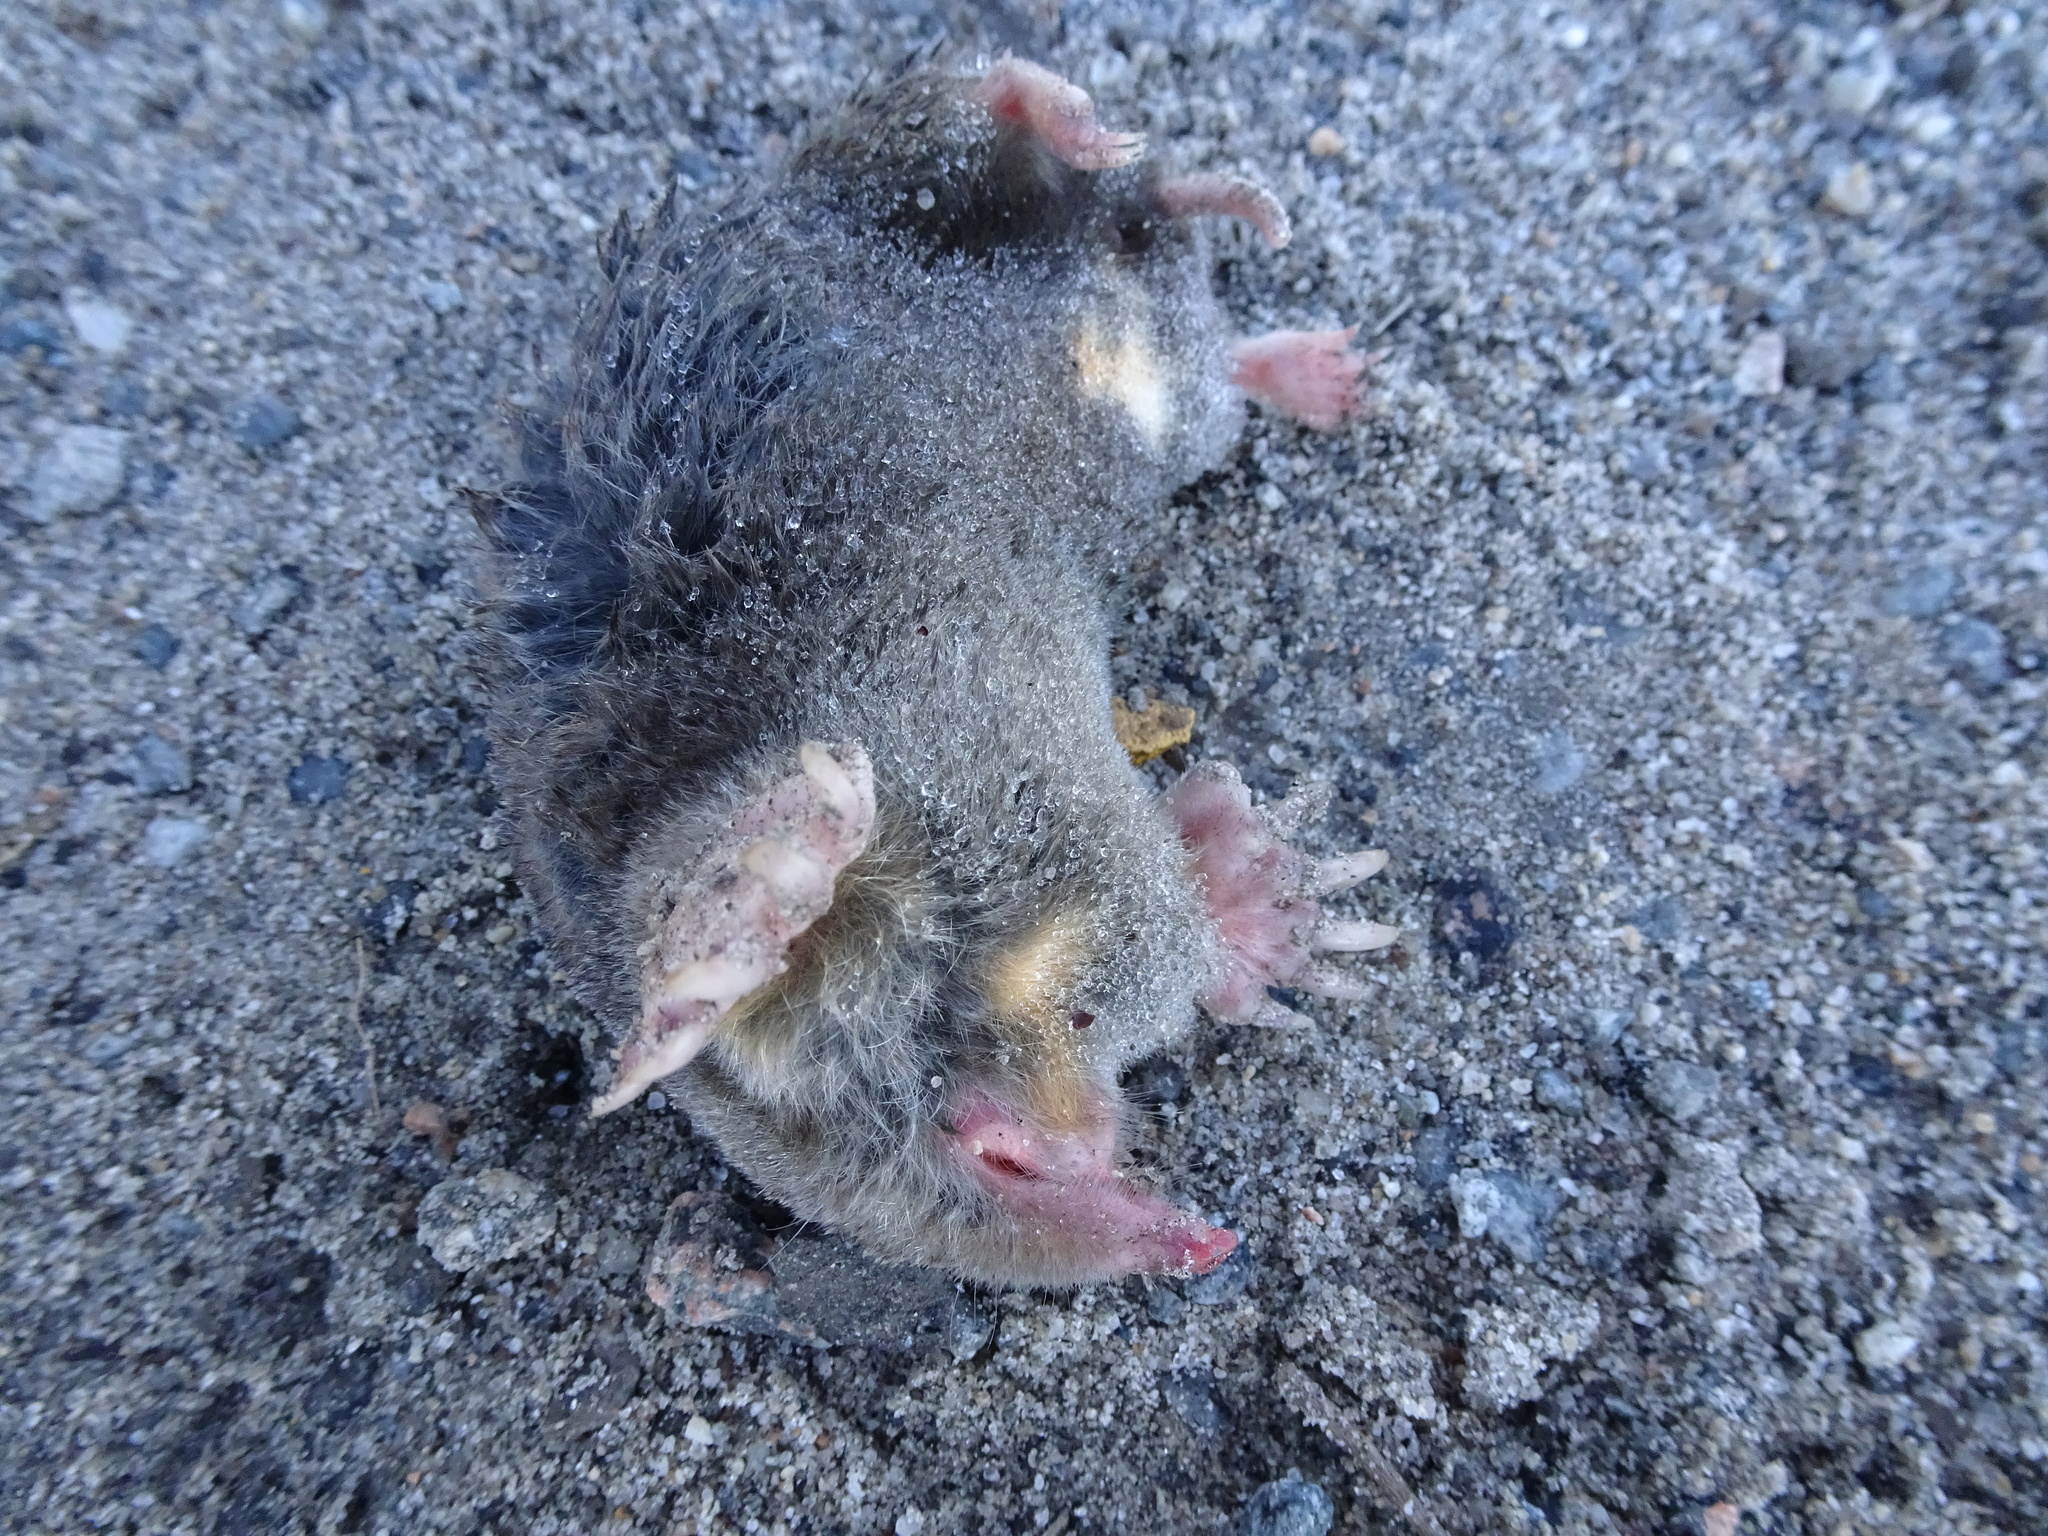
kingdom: Animalia
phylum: Chordata
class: Mammalia
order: Soricomorpha
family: Talpidae
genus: Scalopus
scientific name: Scalopus aquaticus
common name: Eastern mole
